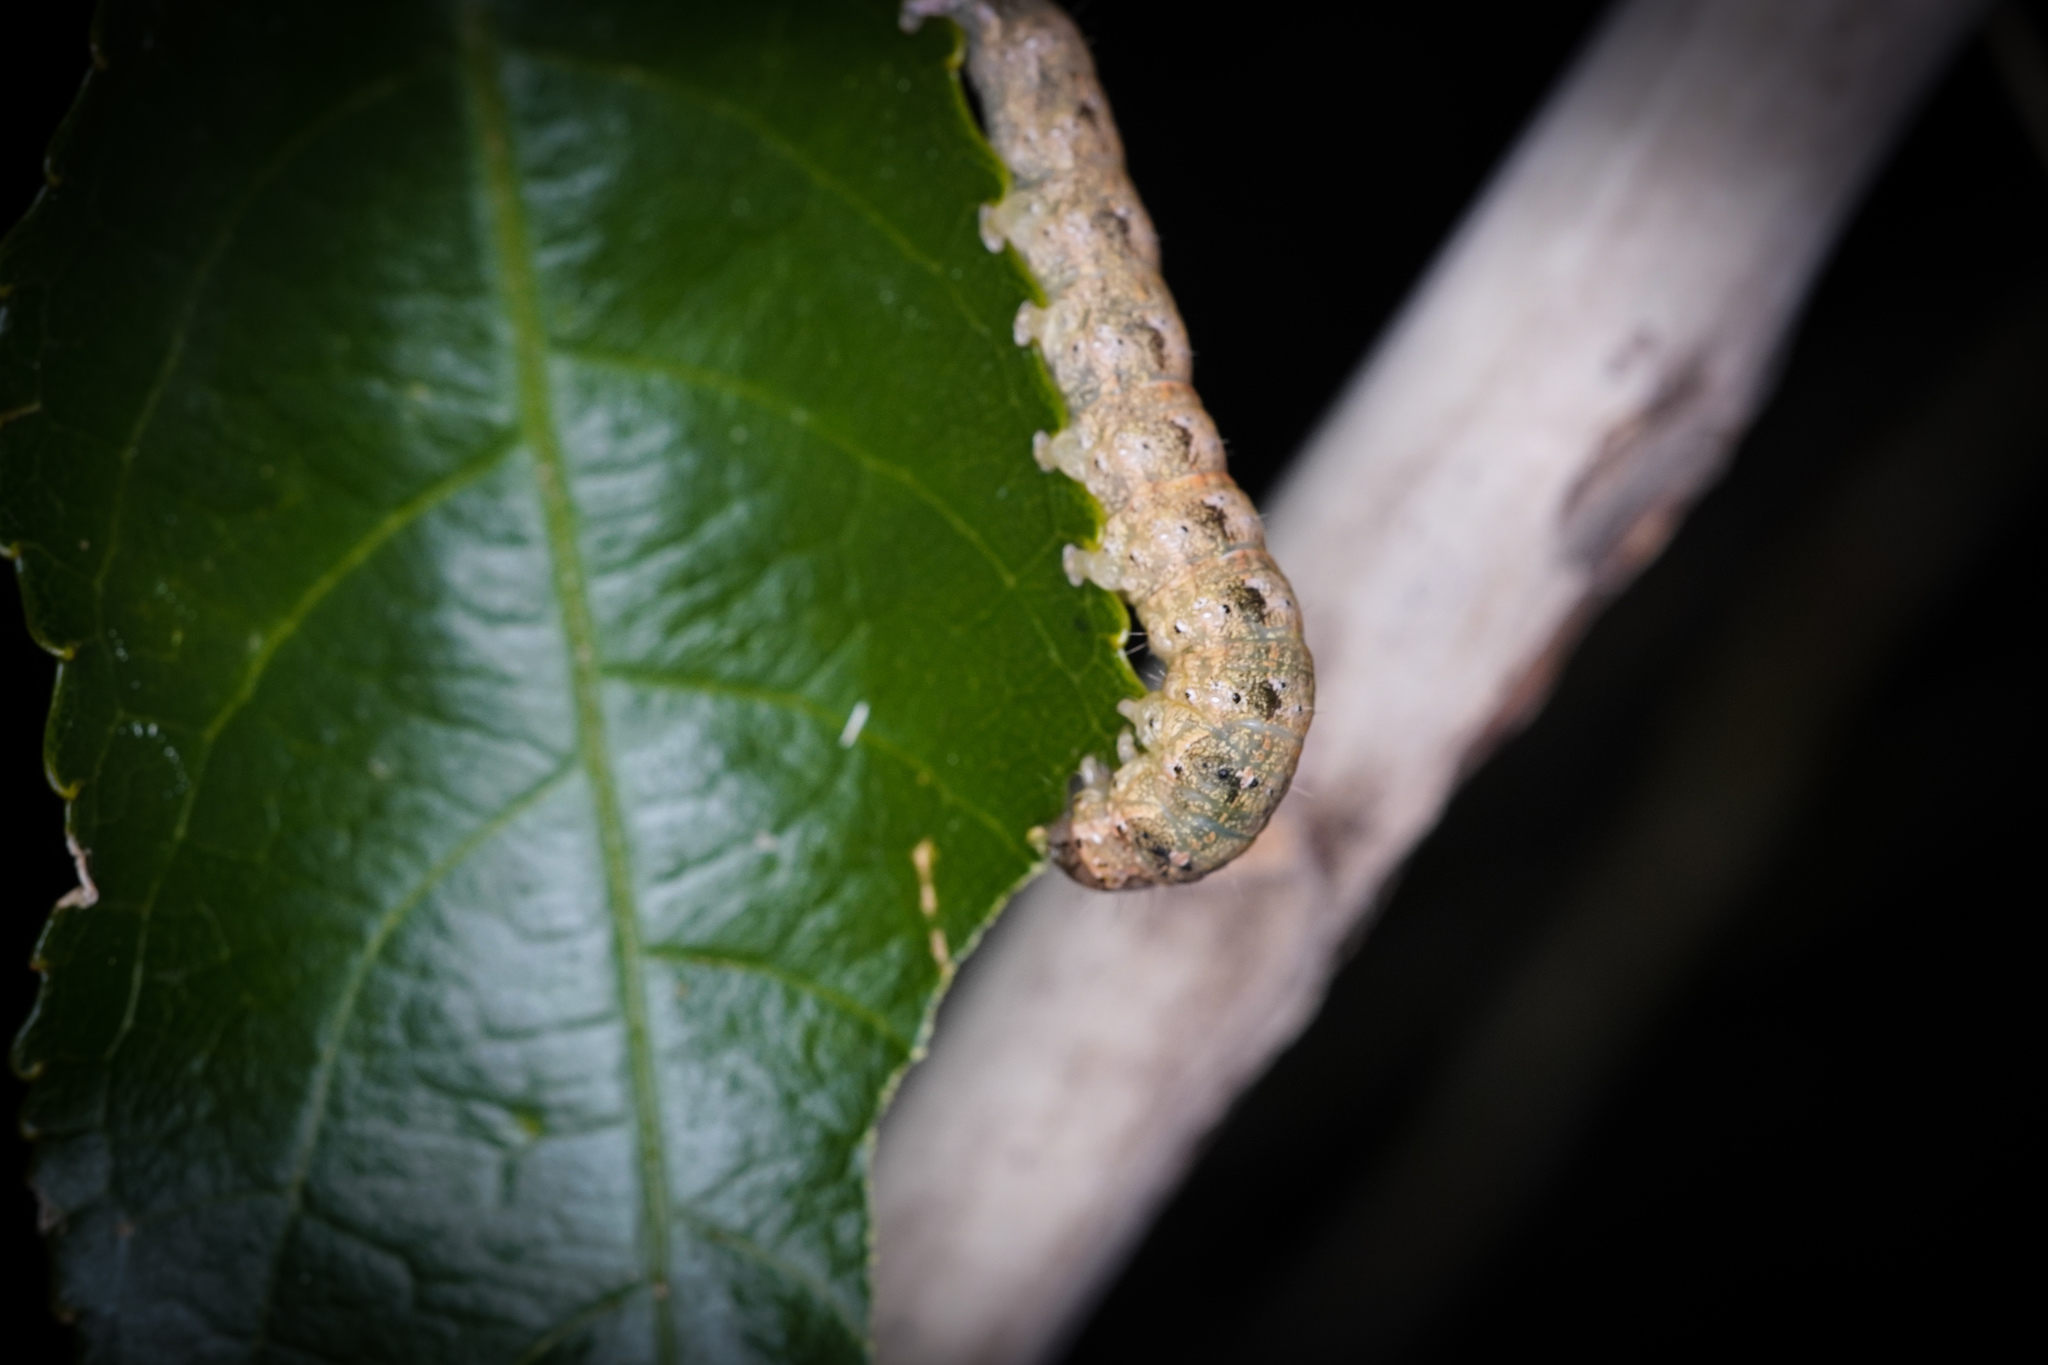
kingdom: Animalia
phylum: Arthropoda
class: Insecta
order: Lepidoptera
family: Noctuidae
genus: Feredayia
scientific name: Feredayia grammosa
